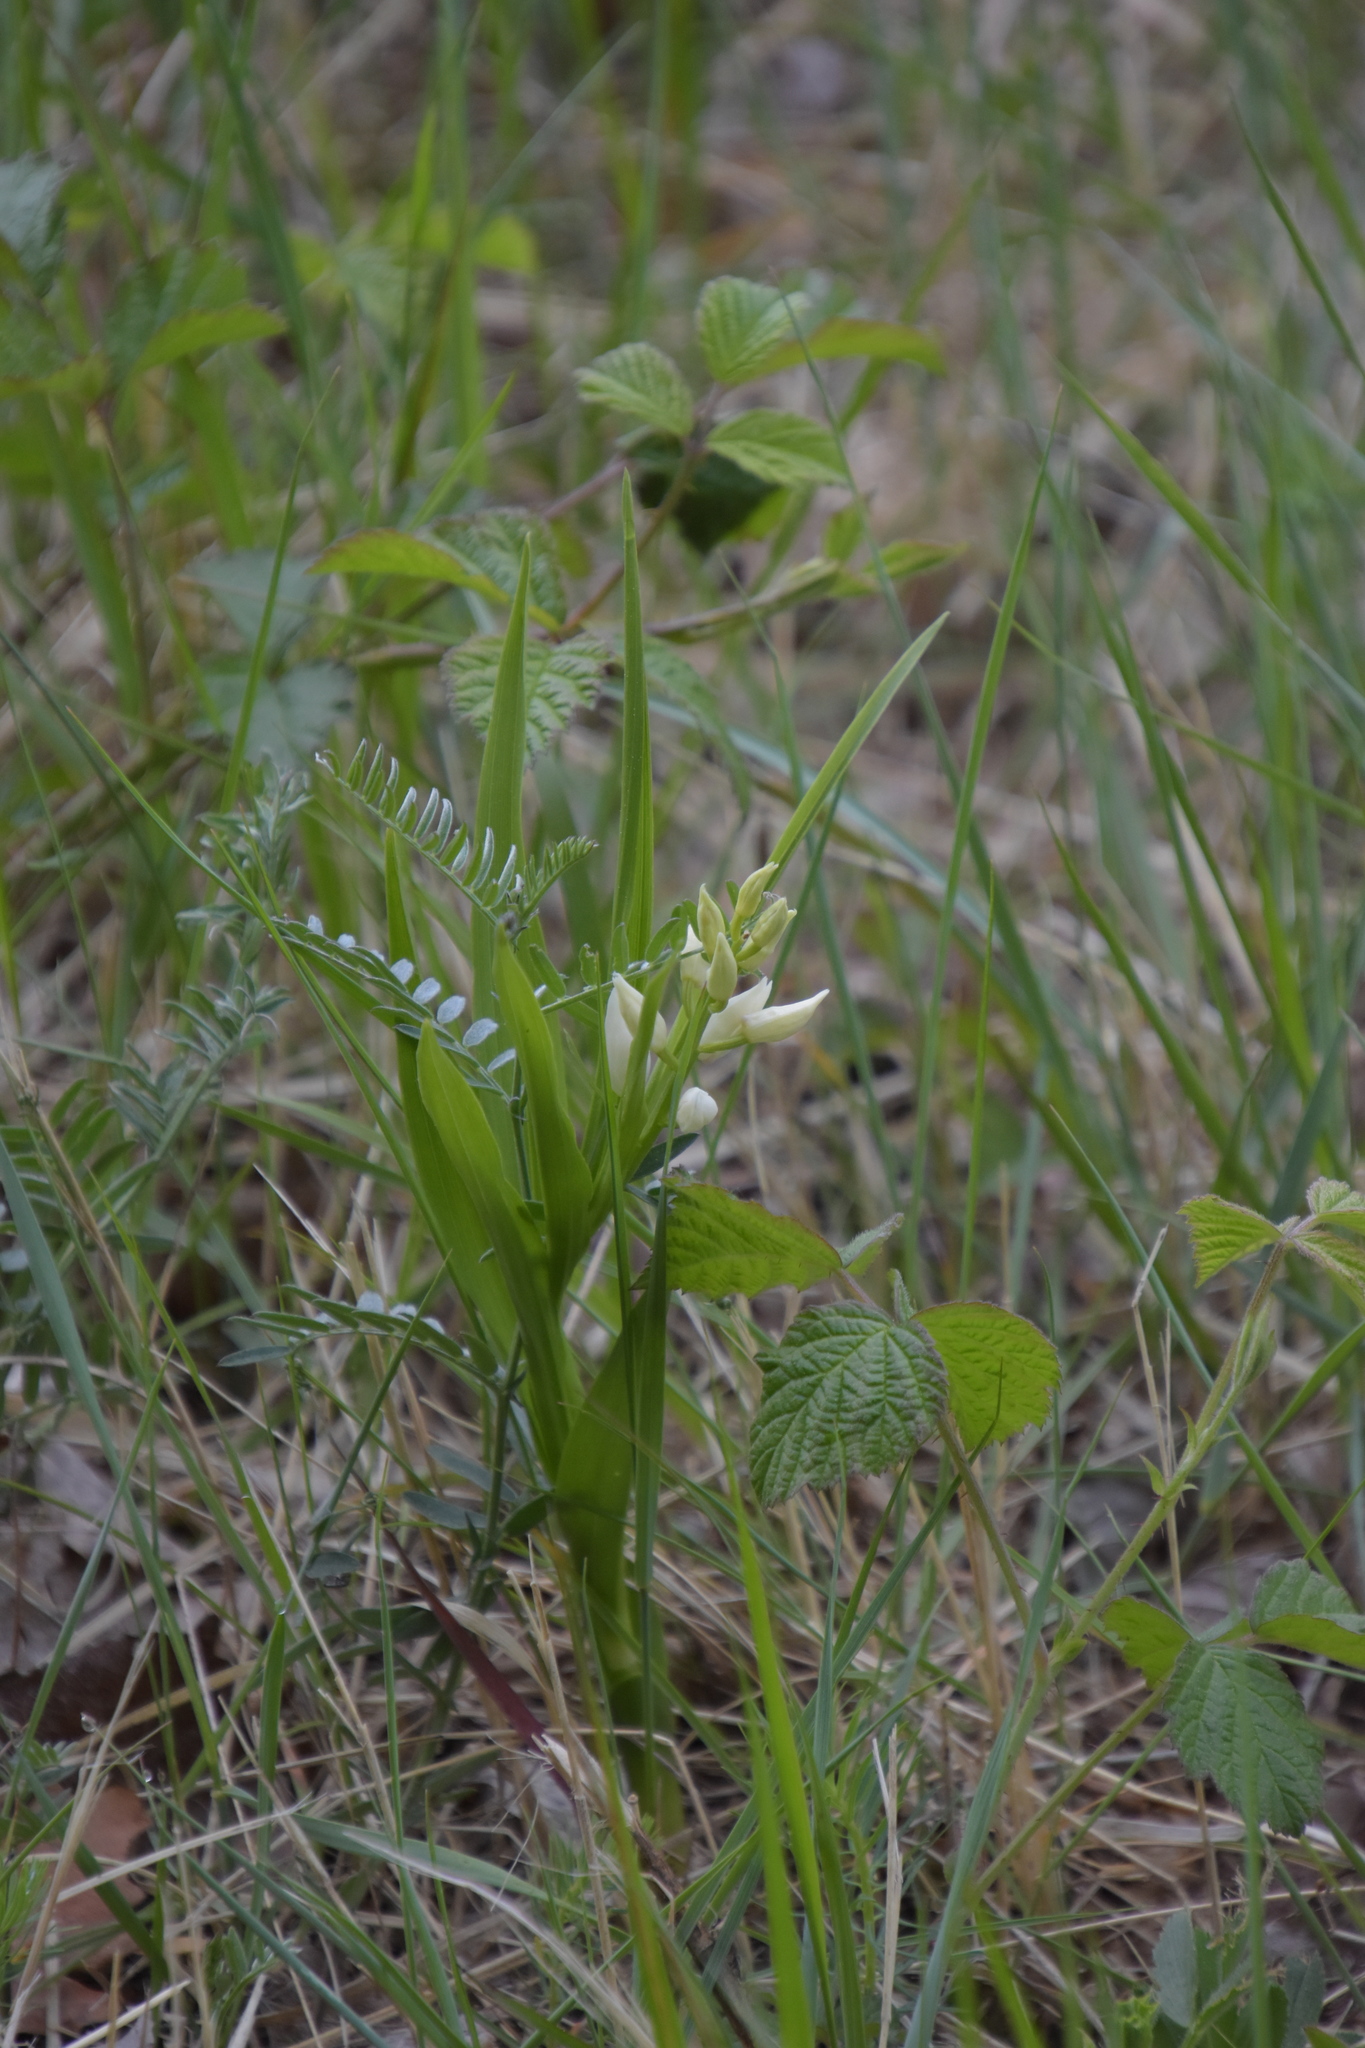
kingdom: Plantae
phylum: Tracheophyta
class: Liliopsida
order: Asparagales
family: Orchidaceae
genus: Cephalanthera
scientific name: Cephalanthera longifolia
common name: Narrow-leaved helleborine
